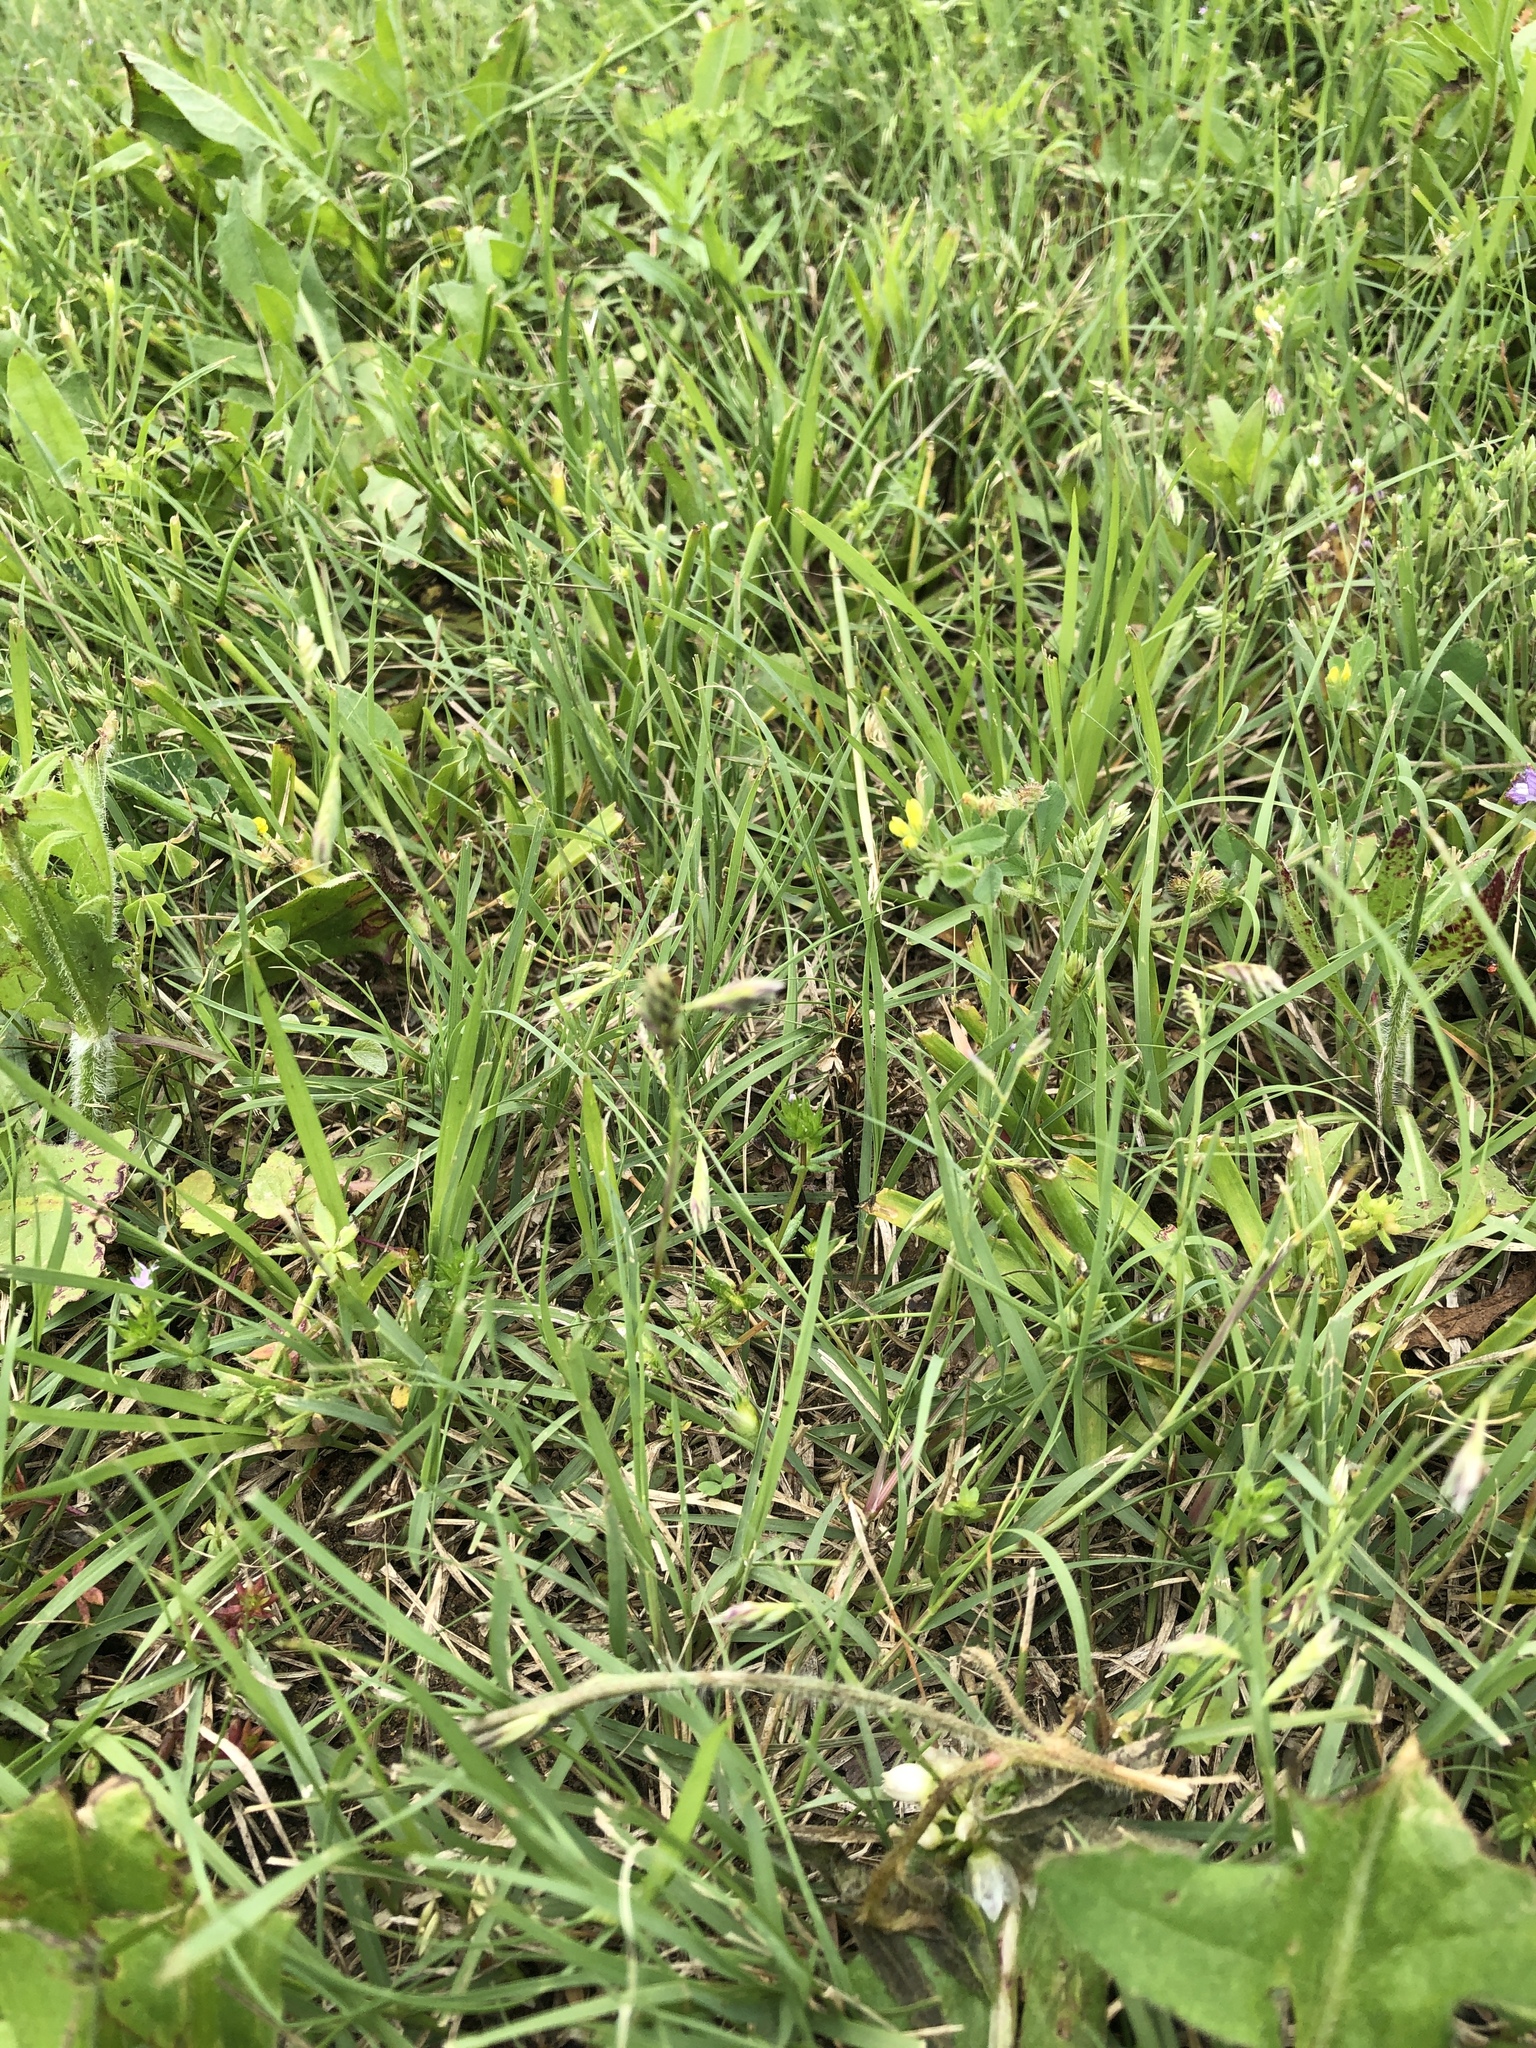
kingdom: Plantae
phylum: Tracheophyta
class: Liliopsida
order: Poales
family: Poaceae
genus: Bouteloua
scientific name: Bouteloua dactyloides
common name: Buffalo grass
